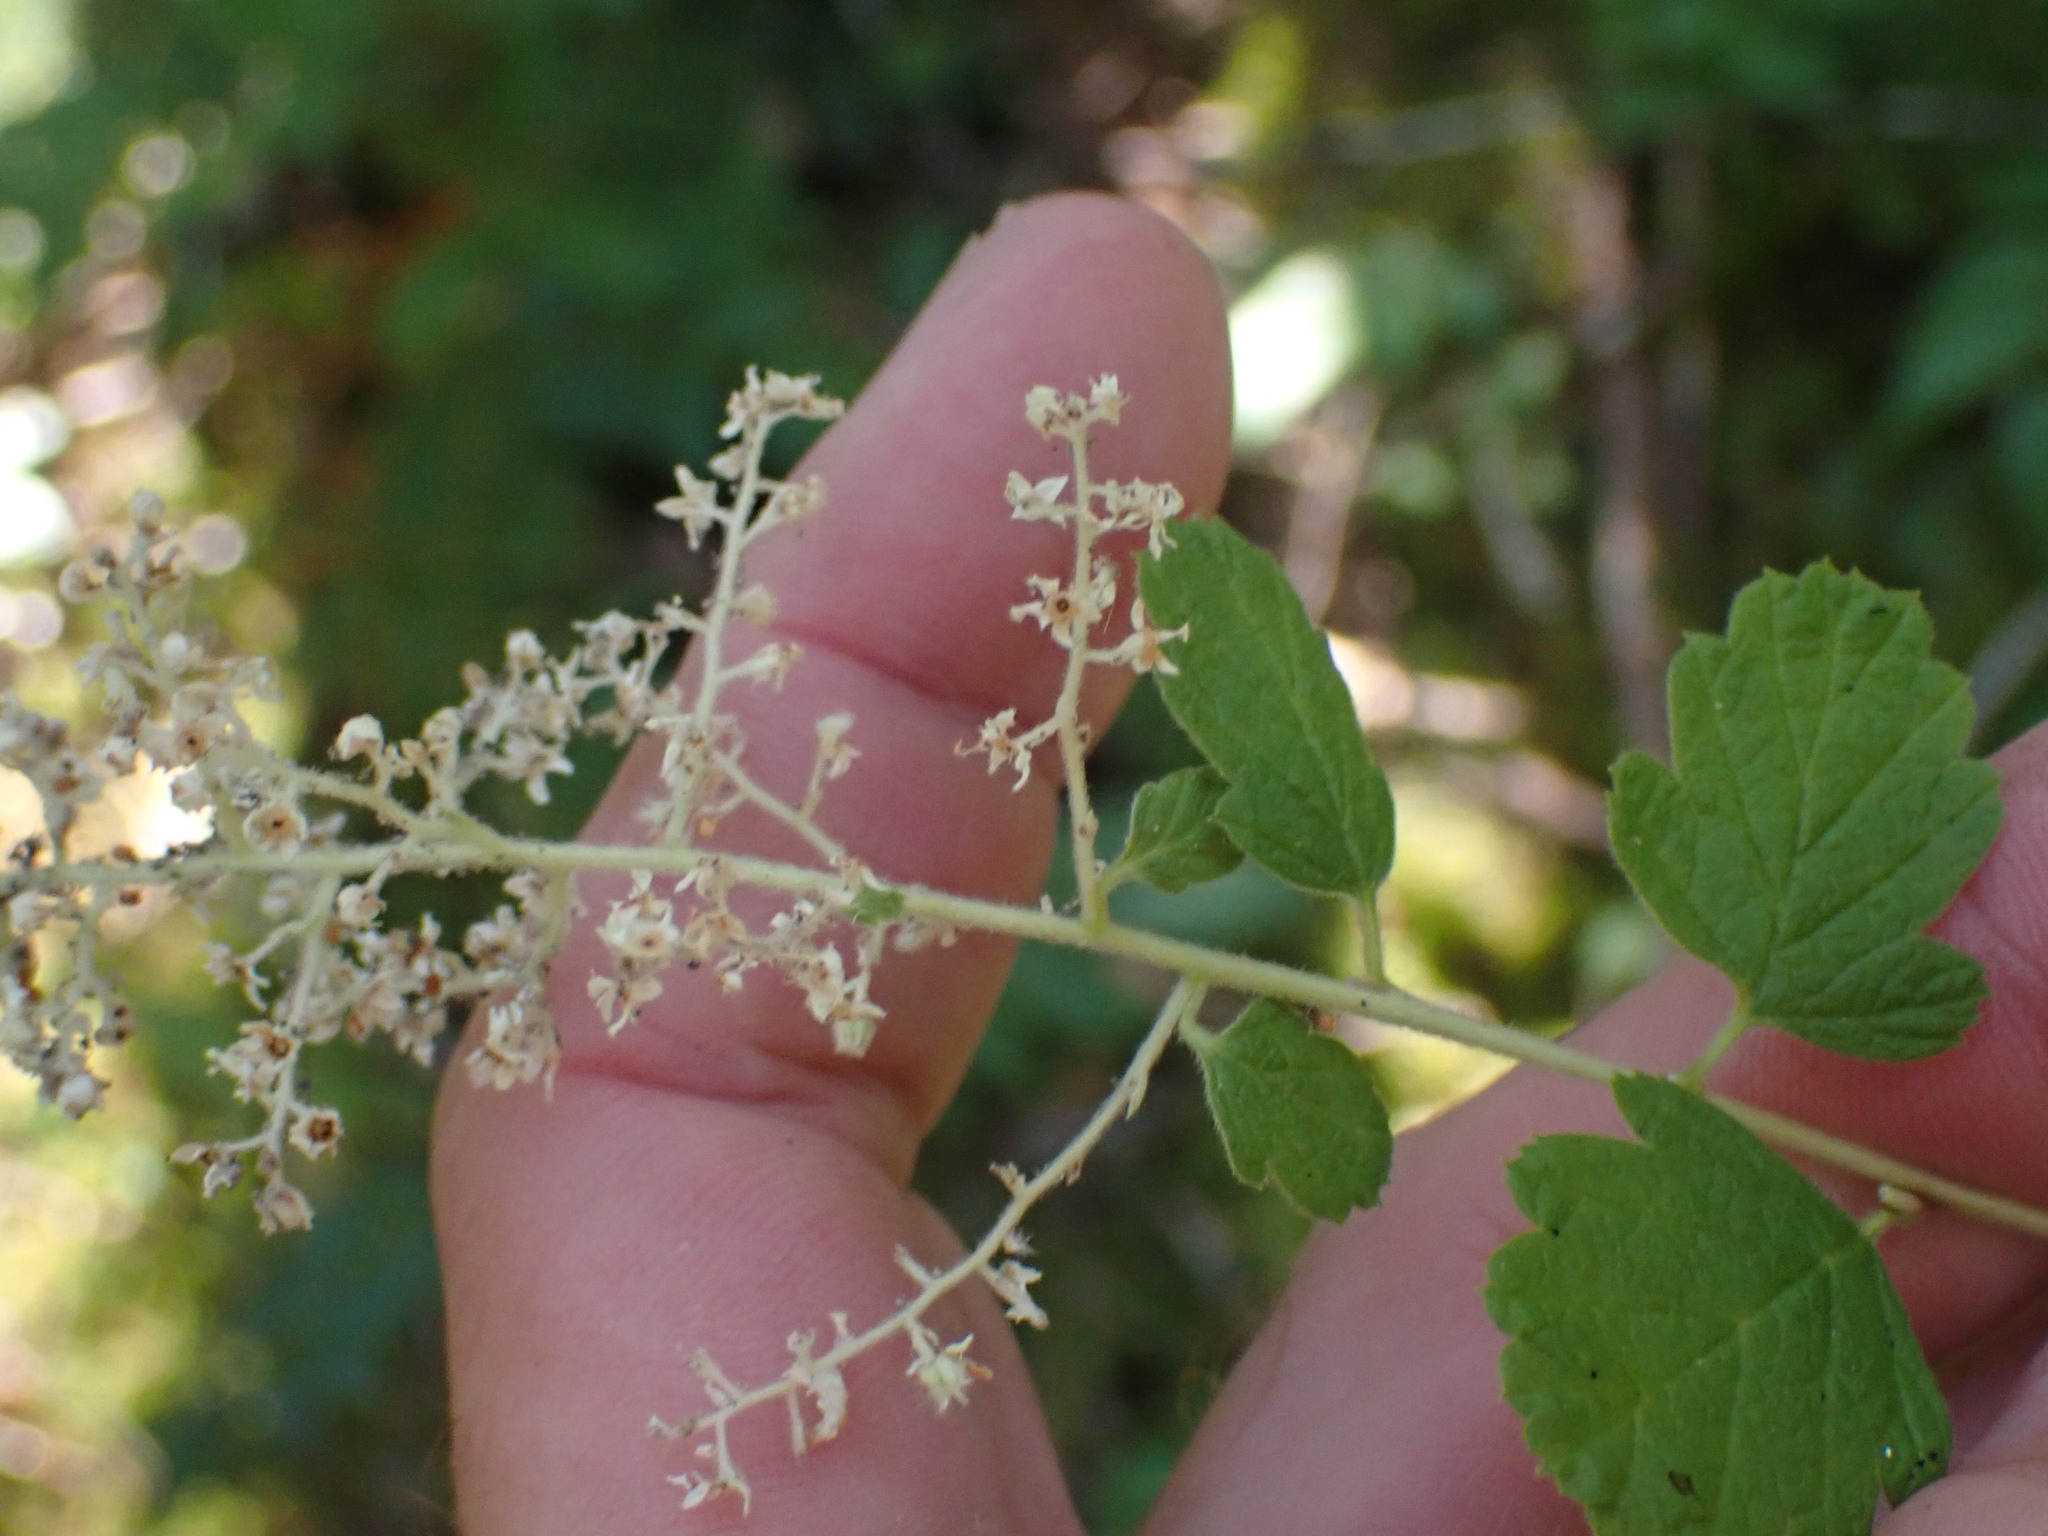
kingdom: Plantae
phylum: Tracheophyta
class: Magnoliopsida
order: Rosales
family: Rosaceae
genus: Holodiscus
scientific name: Holodiscus discolor
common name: Oceanspray
